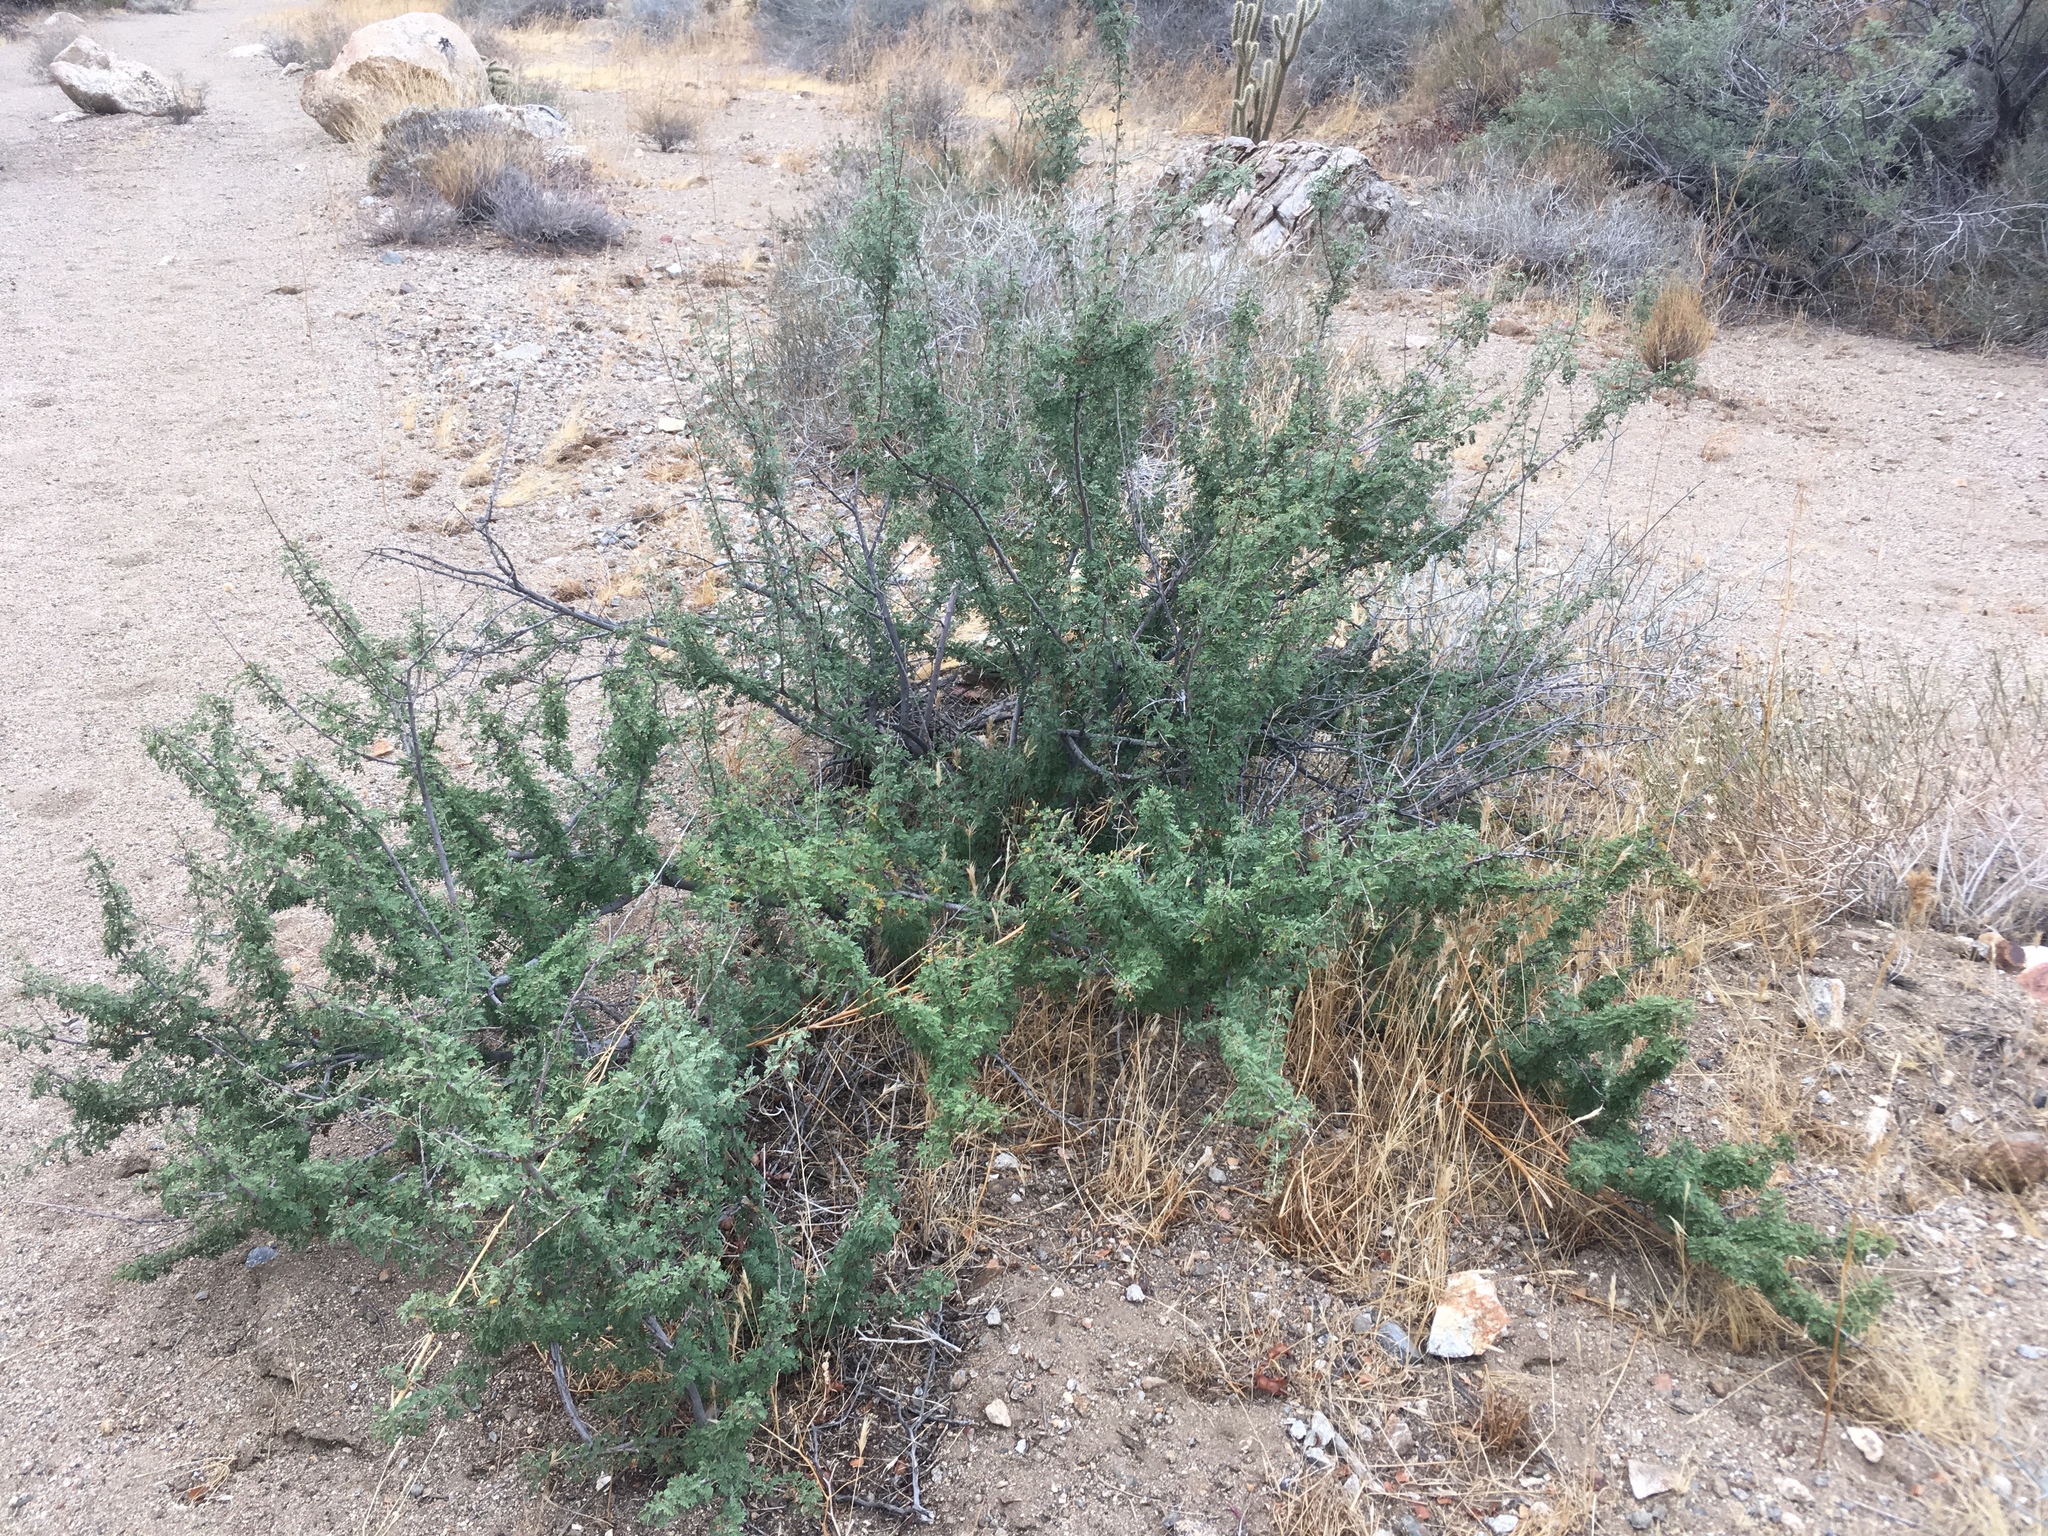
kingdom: Plantae
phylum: Tracheophyta
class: Magnoliopsida
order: Fabales
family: Fabaceae
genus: Senegalia
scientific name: Senegalia greggii
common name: Texas-mimosa
